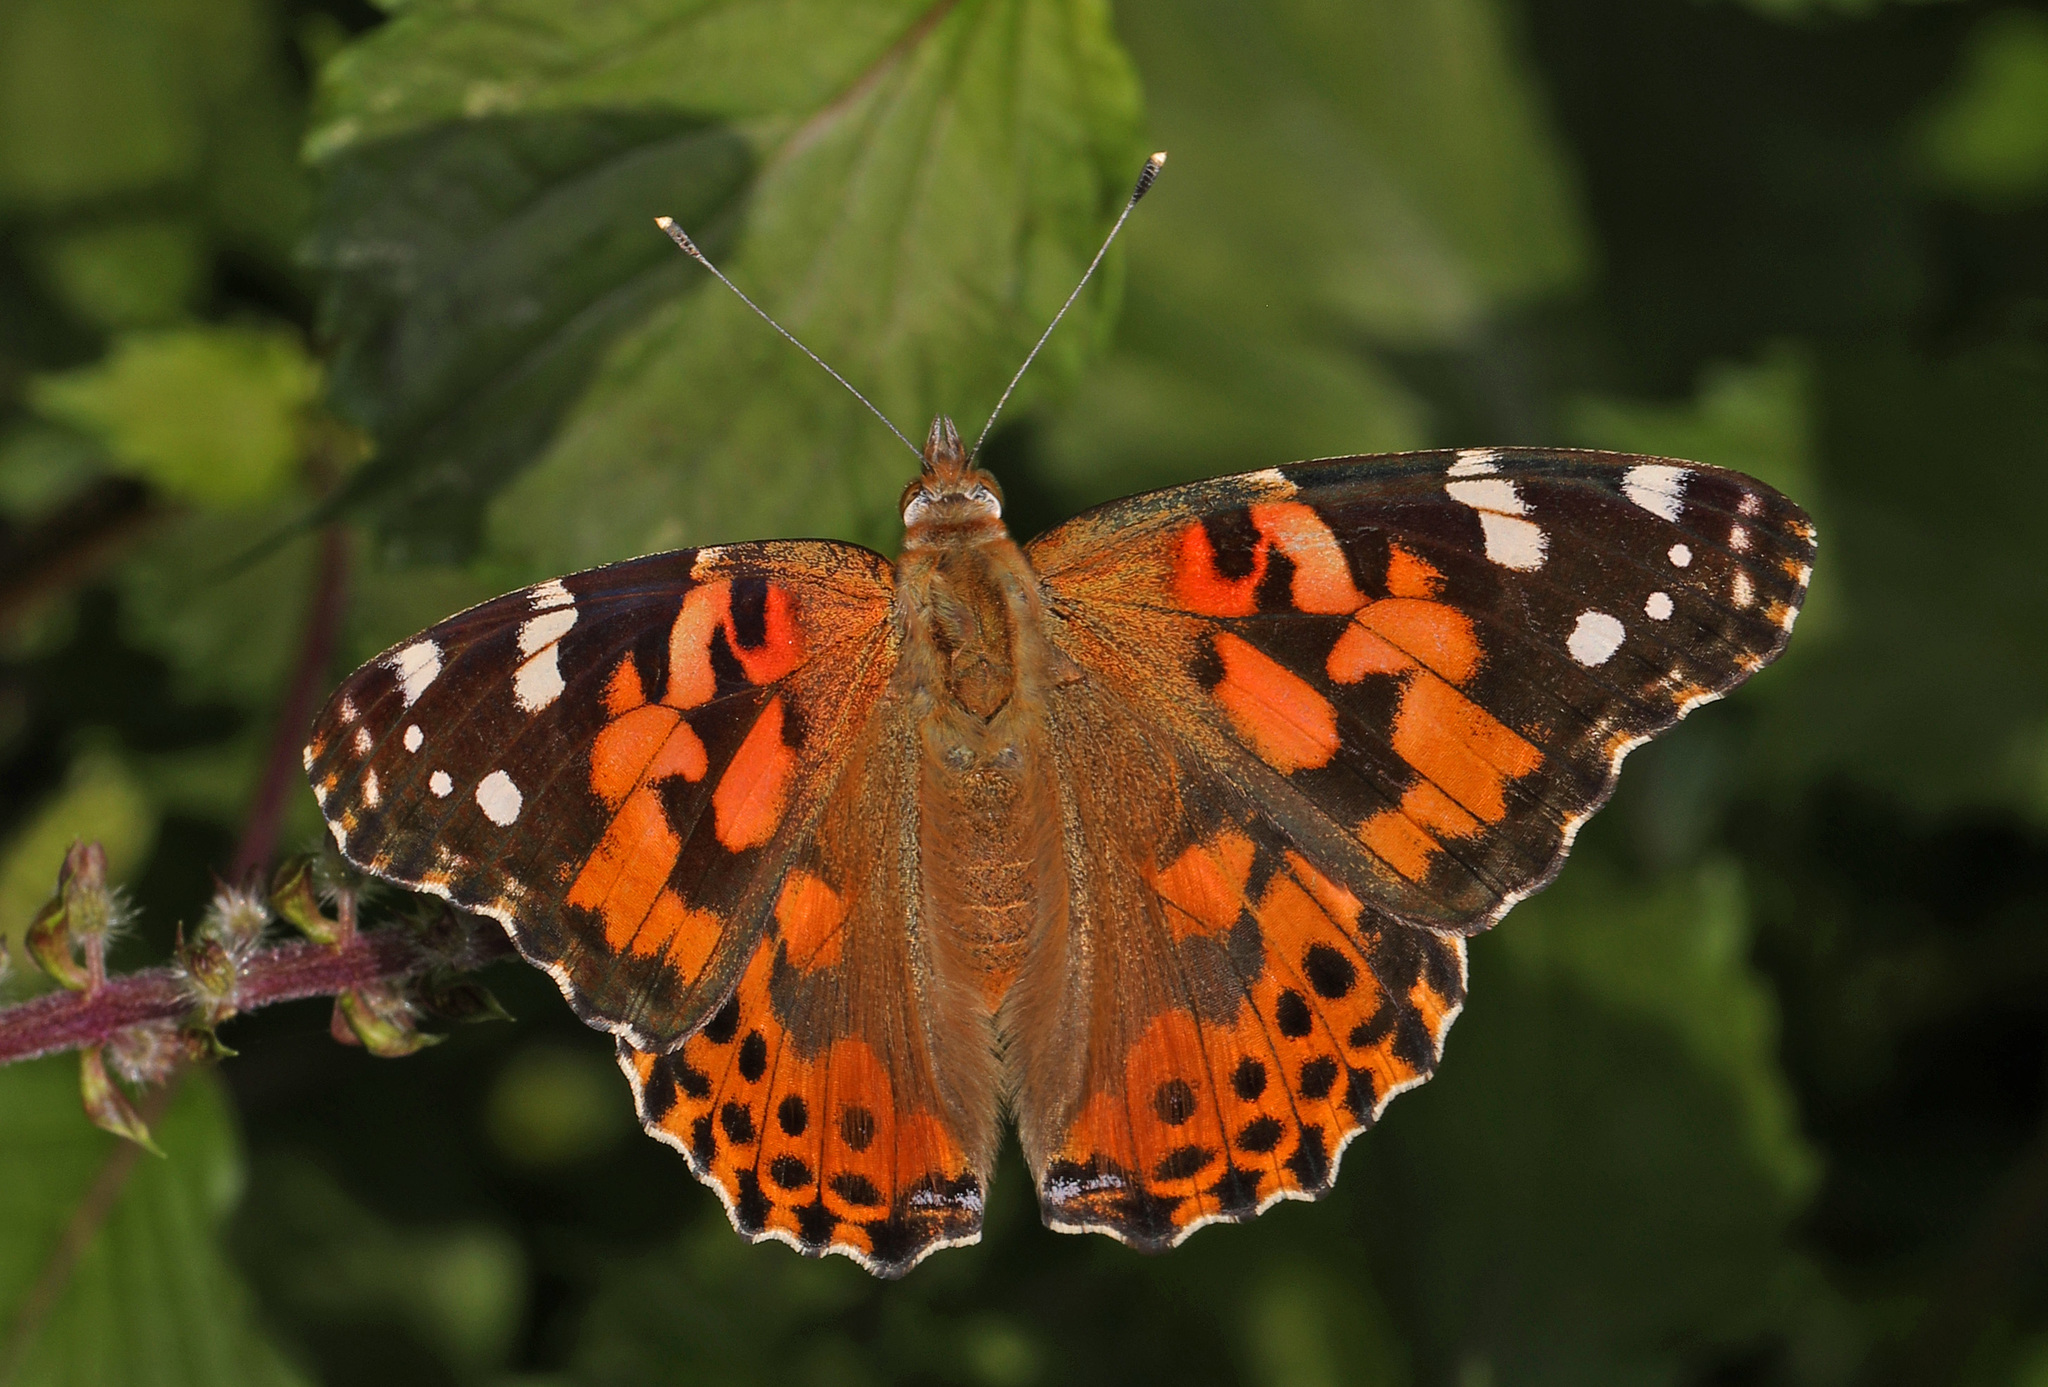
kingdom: Animalia
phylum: Arthropoda
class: Insecta
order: Lepidoptera
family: Nymphalidae
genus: Vanessa
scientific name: Vanessa cardui
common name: Painted lady
